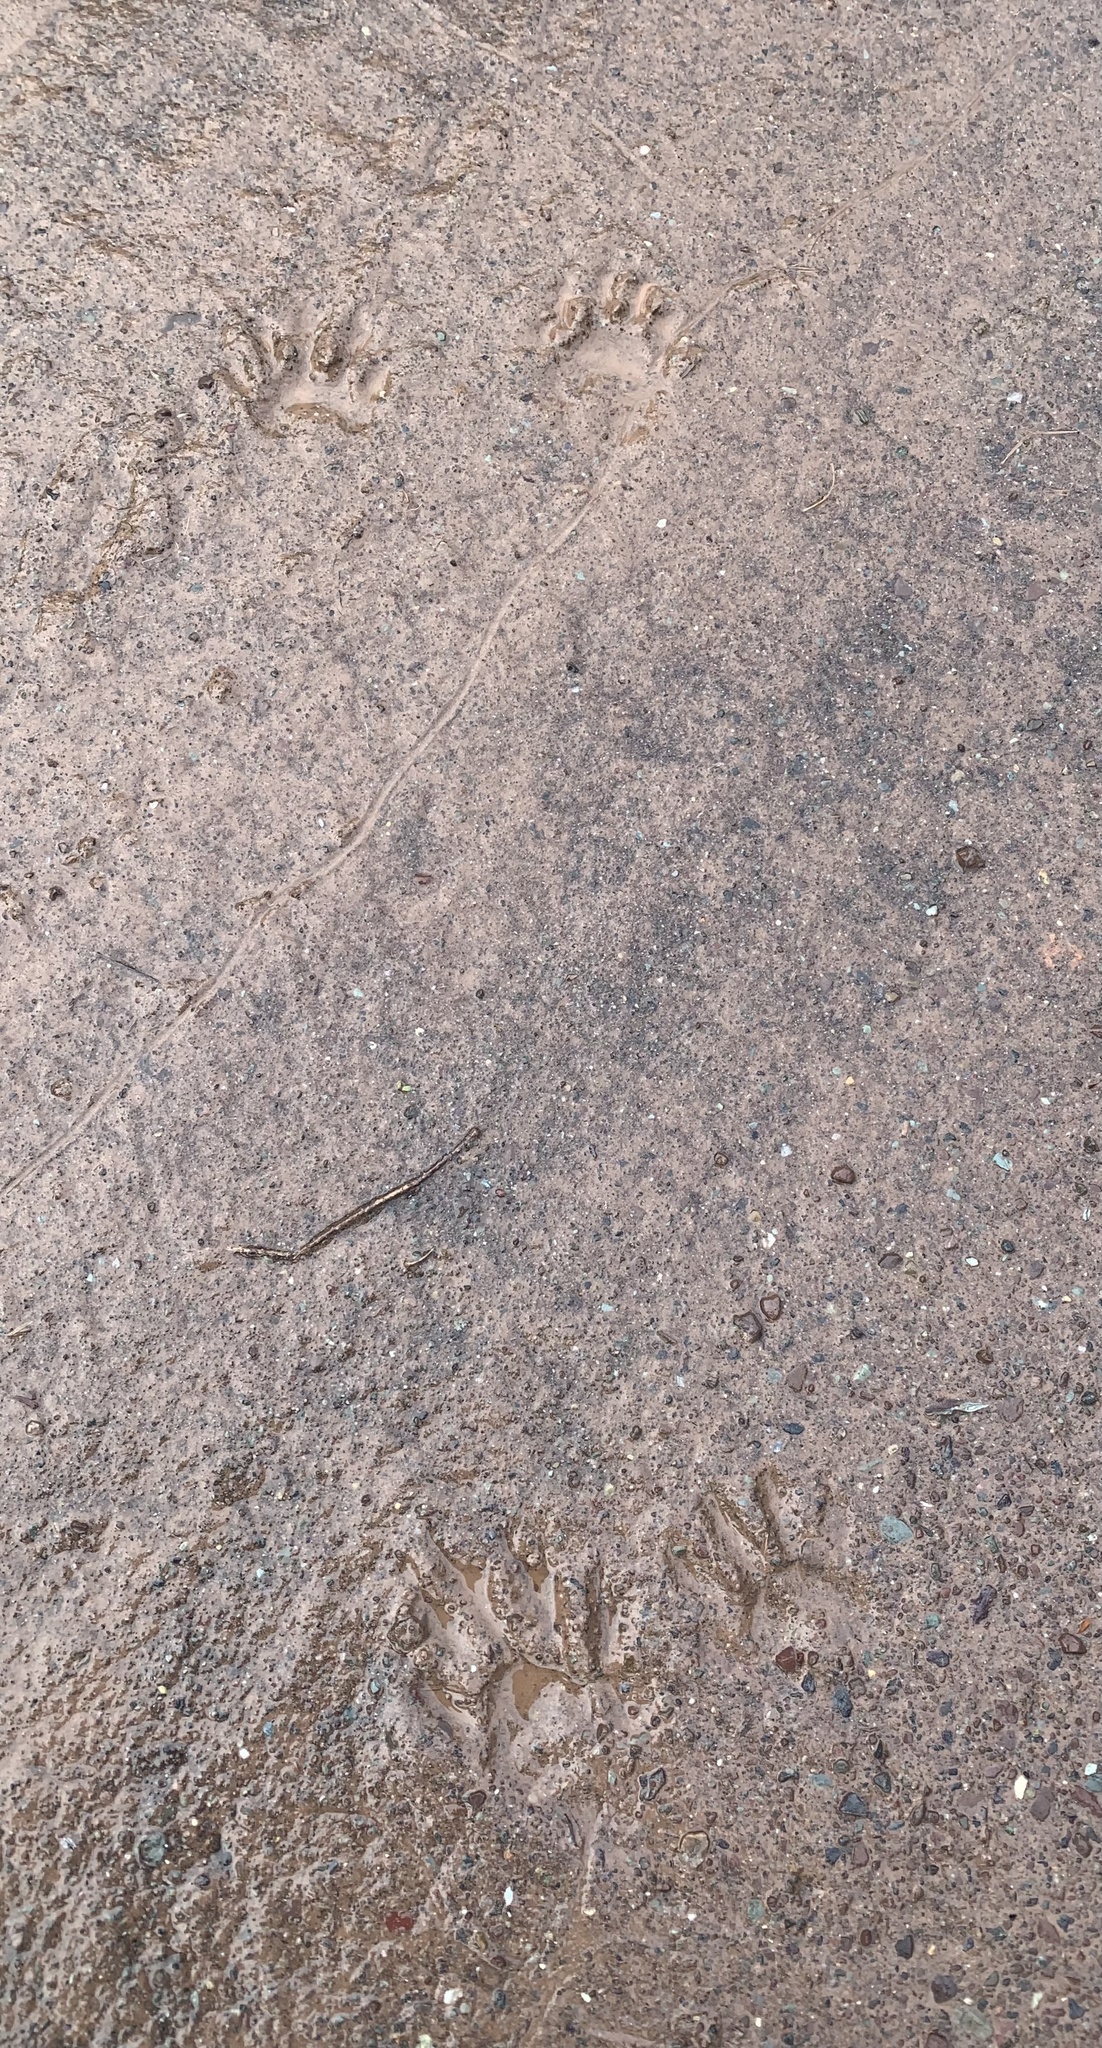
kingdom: Animalia
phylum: Chordata
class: Mammalia
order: Carnivora
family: Procyonidae
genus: Procyon
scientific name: Procyon lotor
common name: Raccoon
